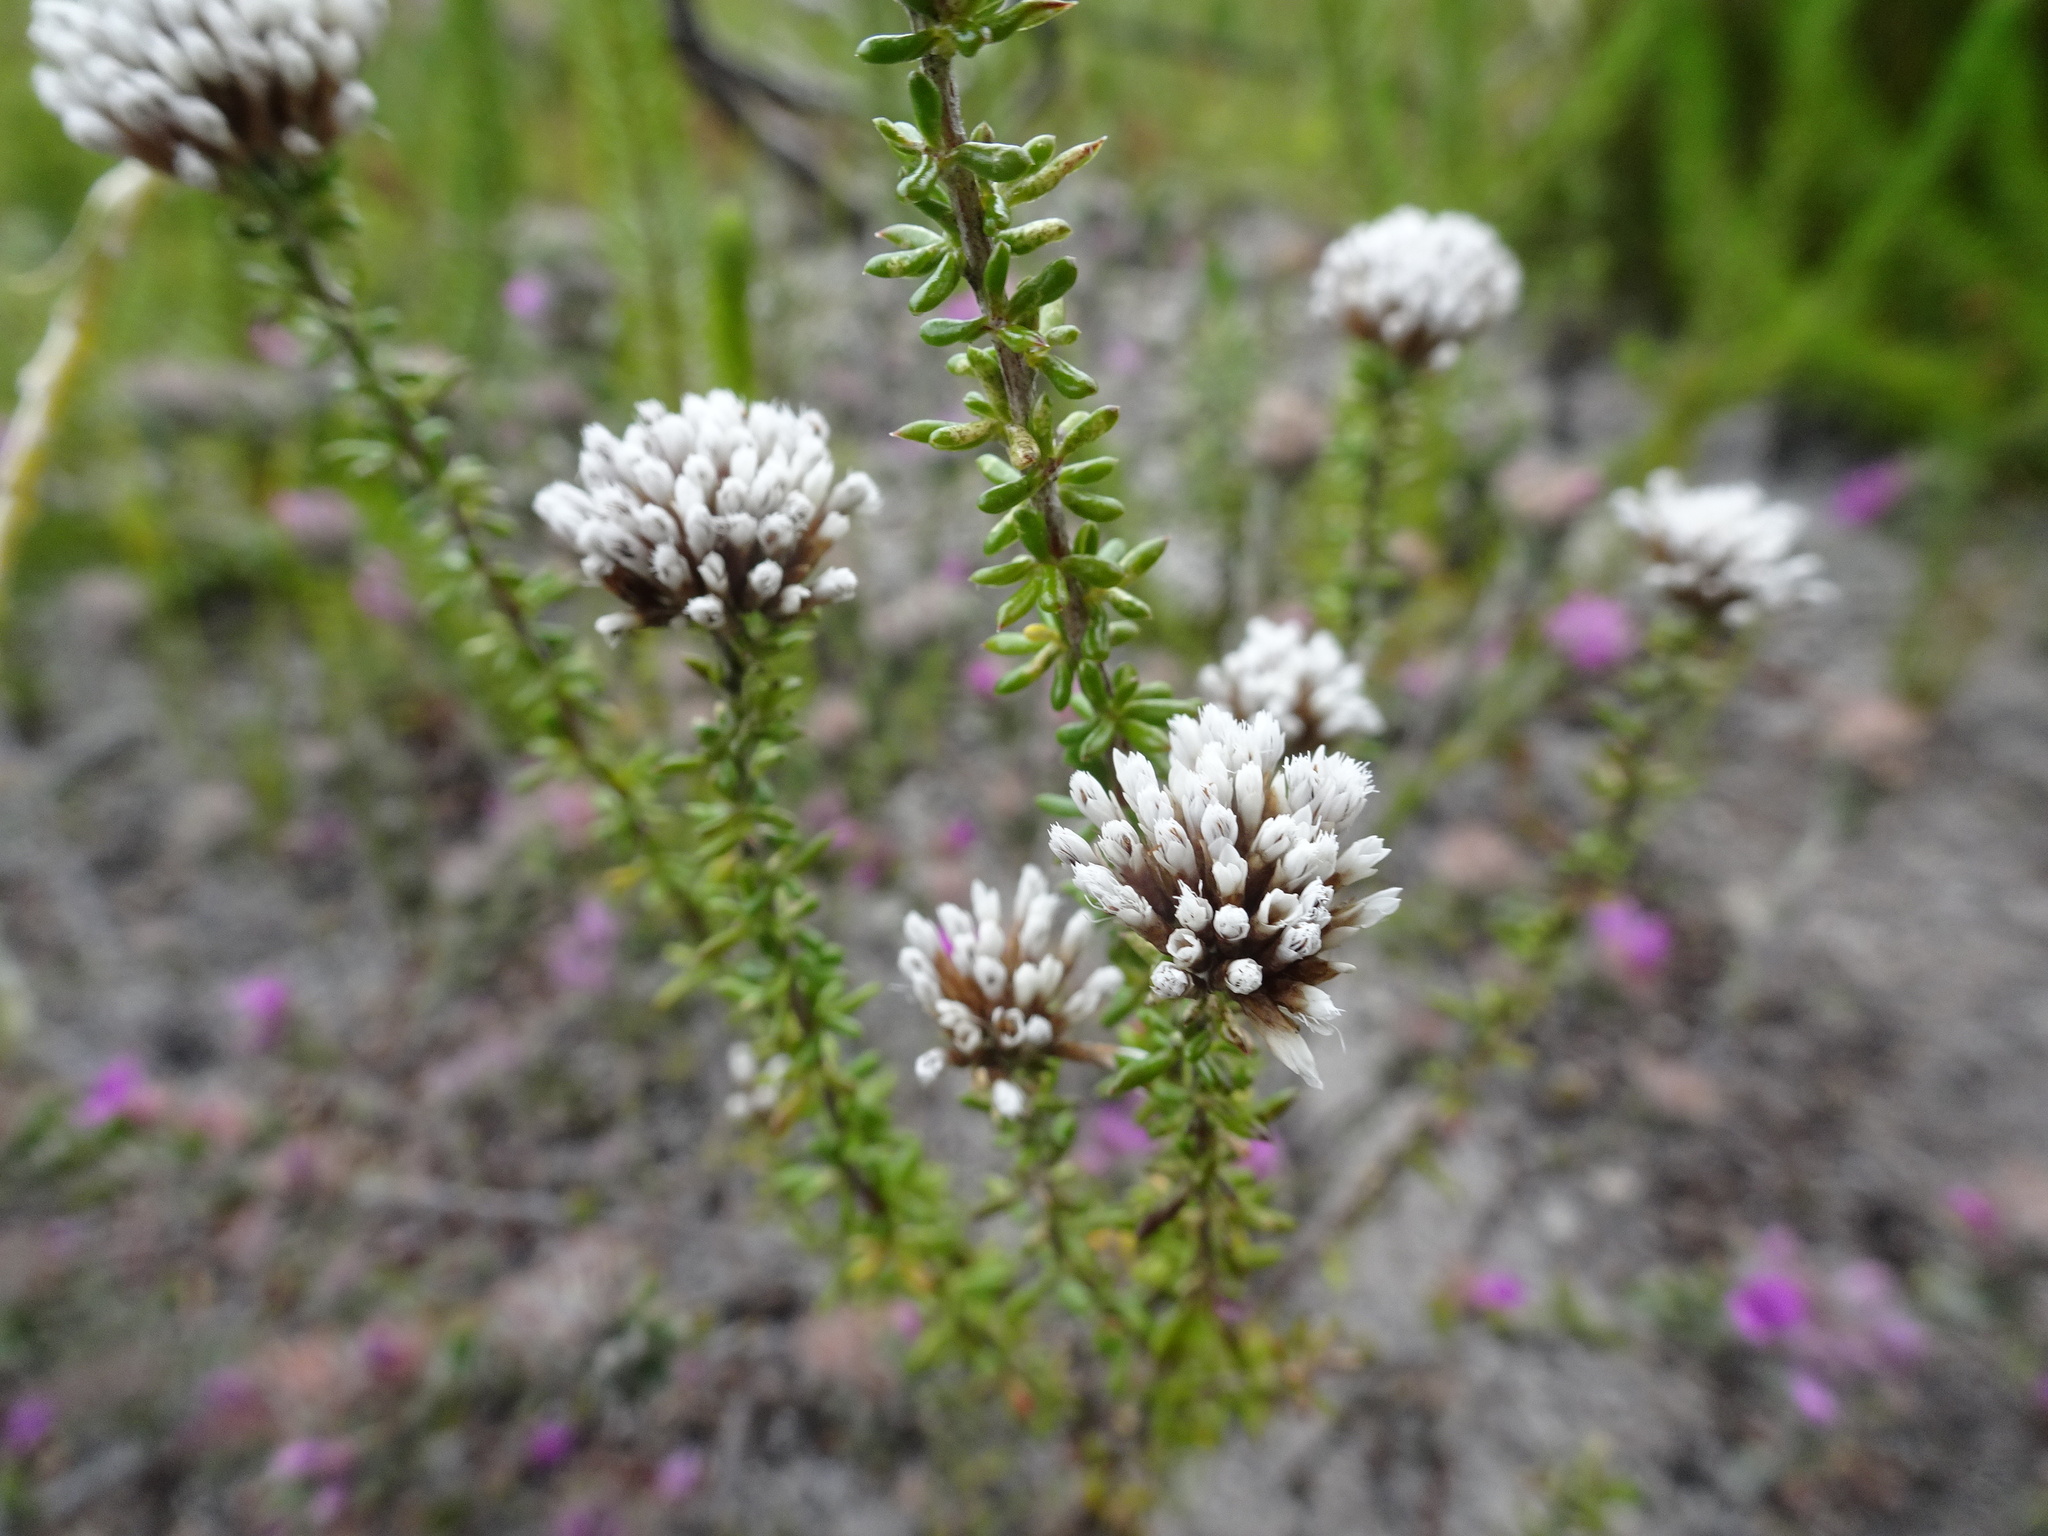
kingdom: Plantae
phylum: Tracheophyta
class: Magnoliopsida
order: Asterales
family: Asteraceae
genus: Metalasia
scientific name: Metalasia densa
